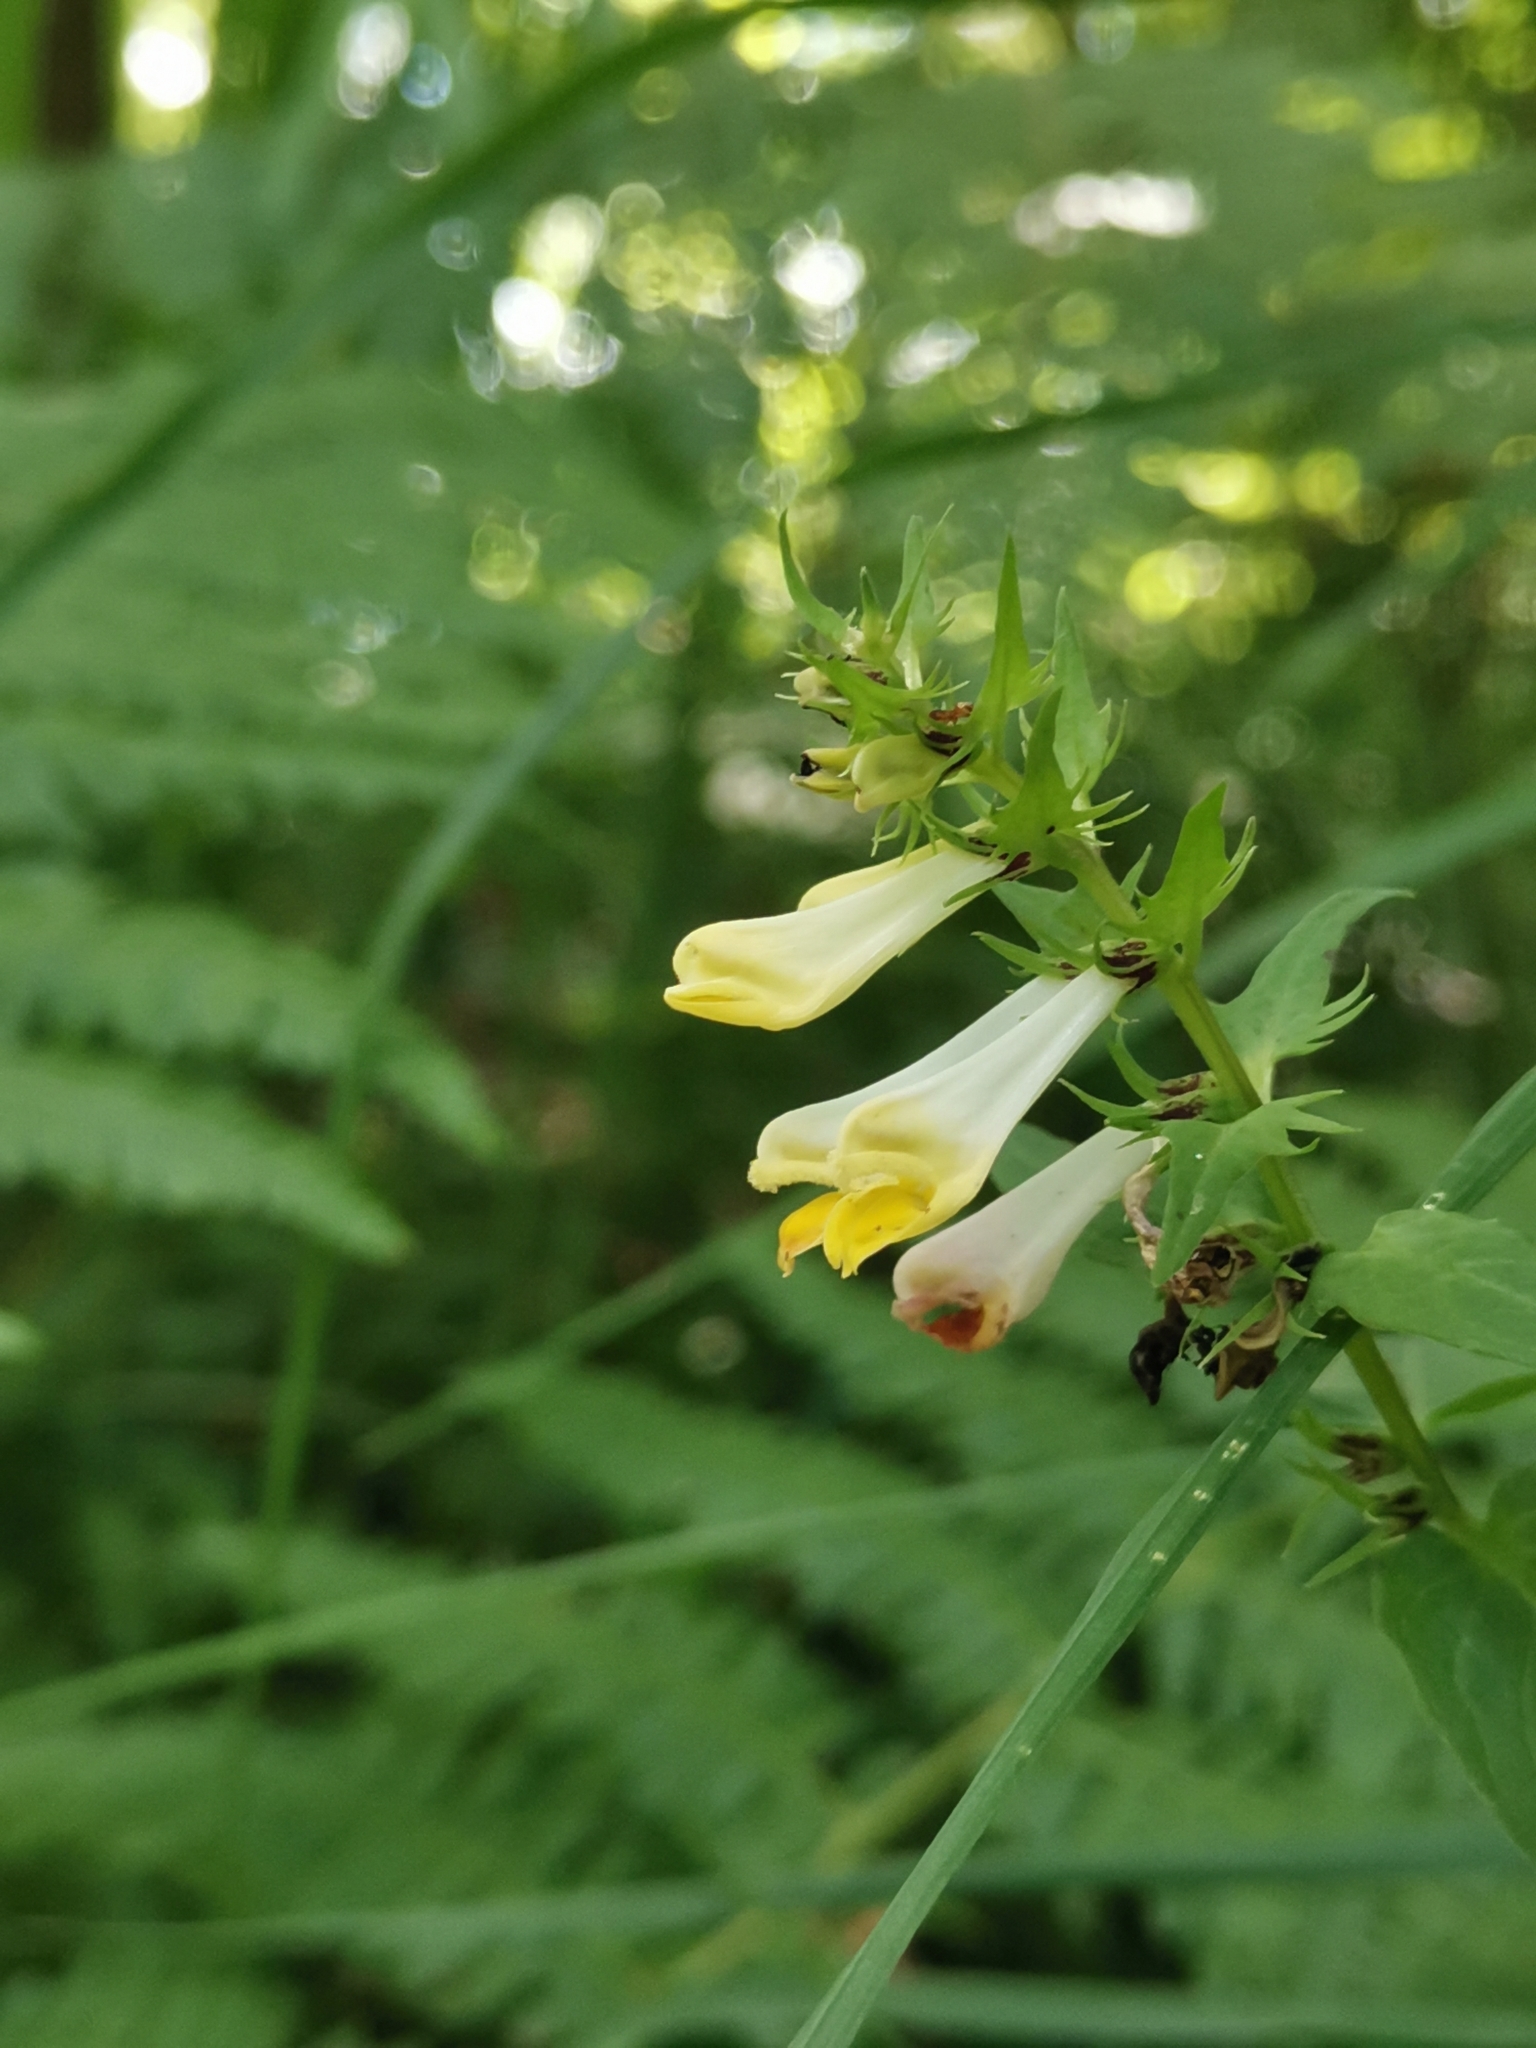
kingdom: Plantae
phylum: Tracheophyta
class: Magnoliopsida
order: Lamiales
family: Orobanchaceae
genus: Melampyrum
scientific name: Melampyrum pratense
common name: Common cow-wheat
